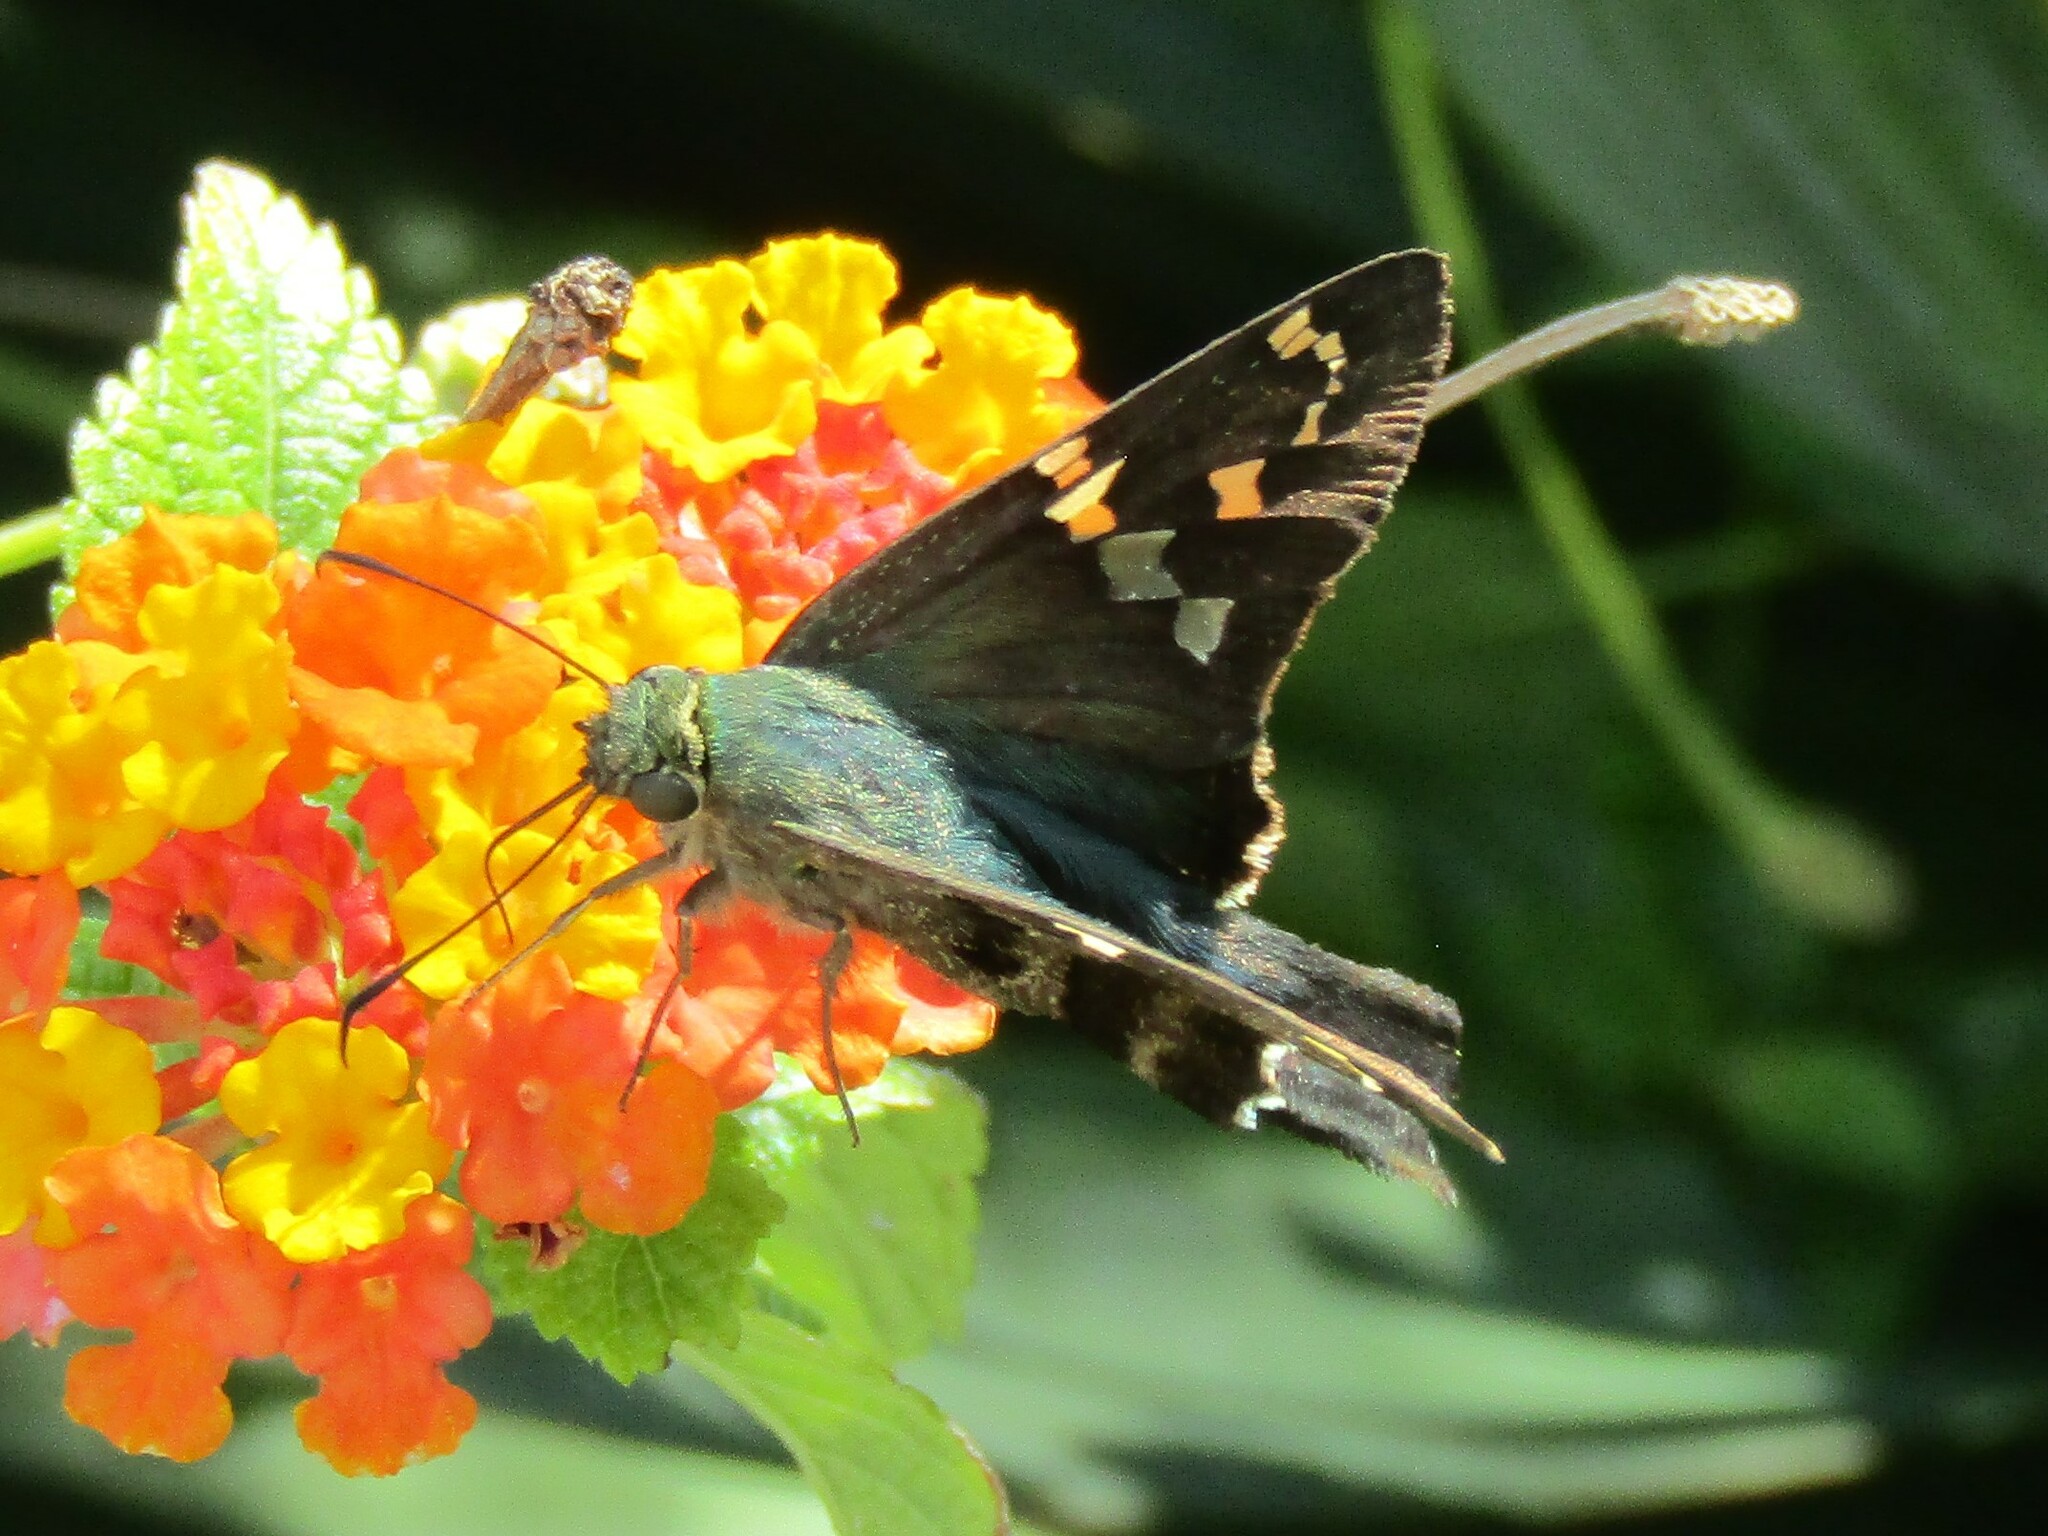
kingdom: Animalia
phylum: Arthropoda
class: Insecta
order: Lepidoptera
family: Hesperiidae
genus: Urbanus
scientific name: Urbanus proteus
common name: Long-tailed skipper
